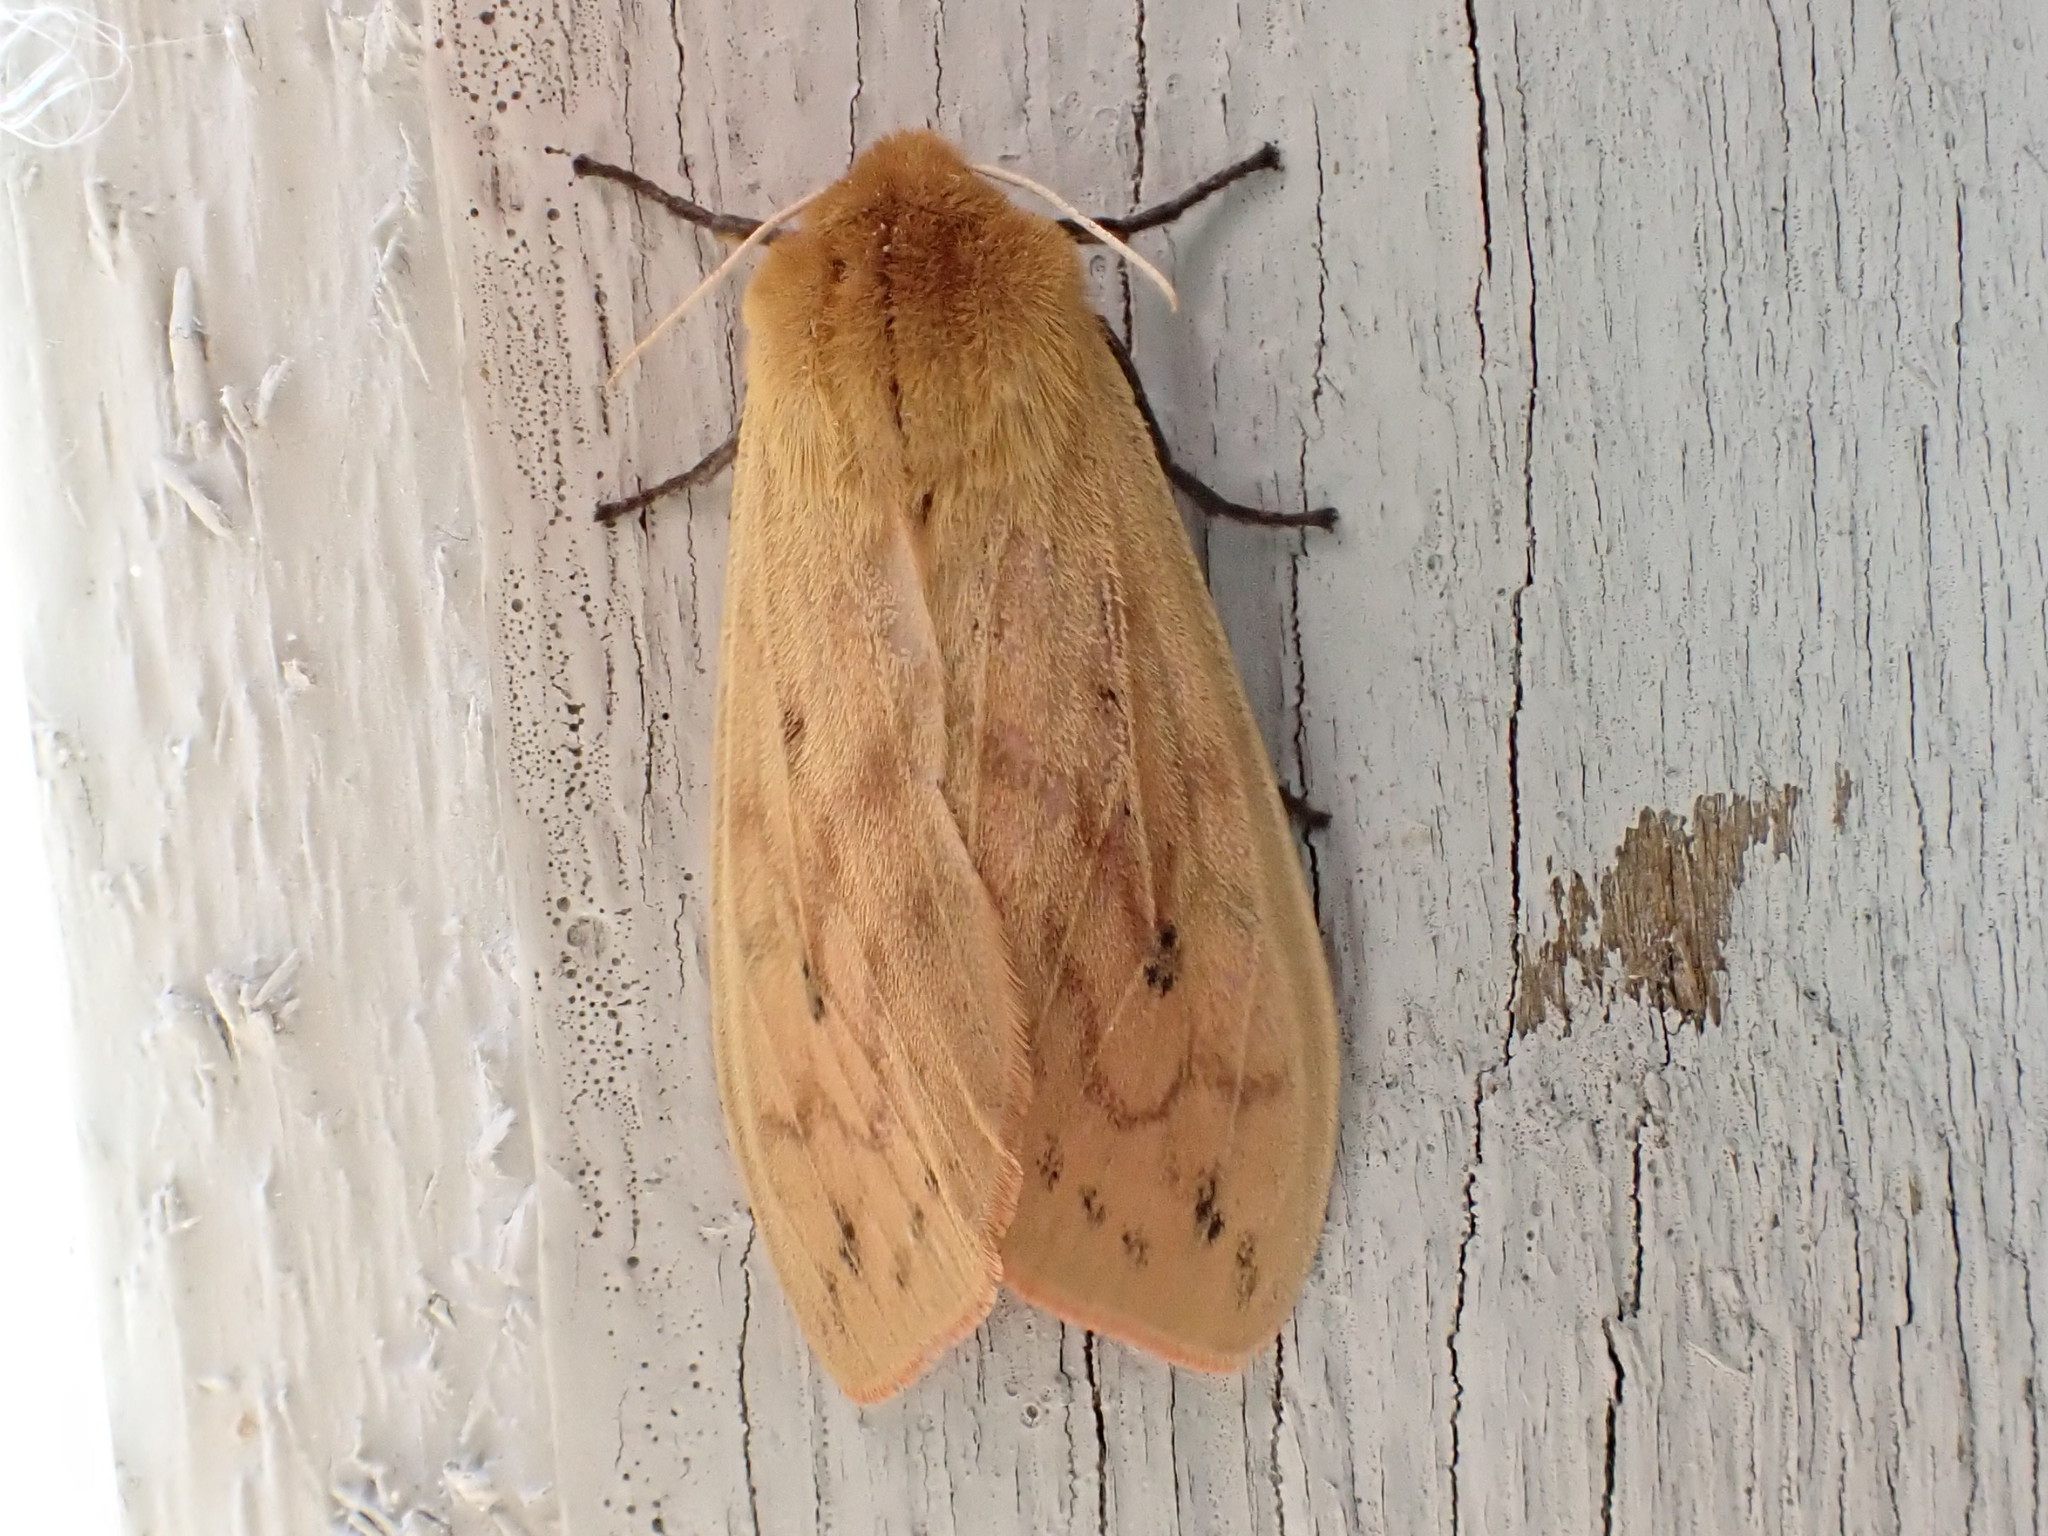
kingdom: Animalia
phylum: Arthropoda
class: Insecta
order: Lepidoptera
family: Erebidae
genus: Pyrrharctia
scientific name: Pyrrharctia isabella
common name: Isabella tiger moth
